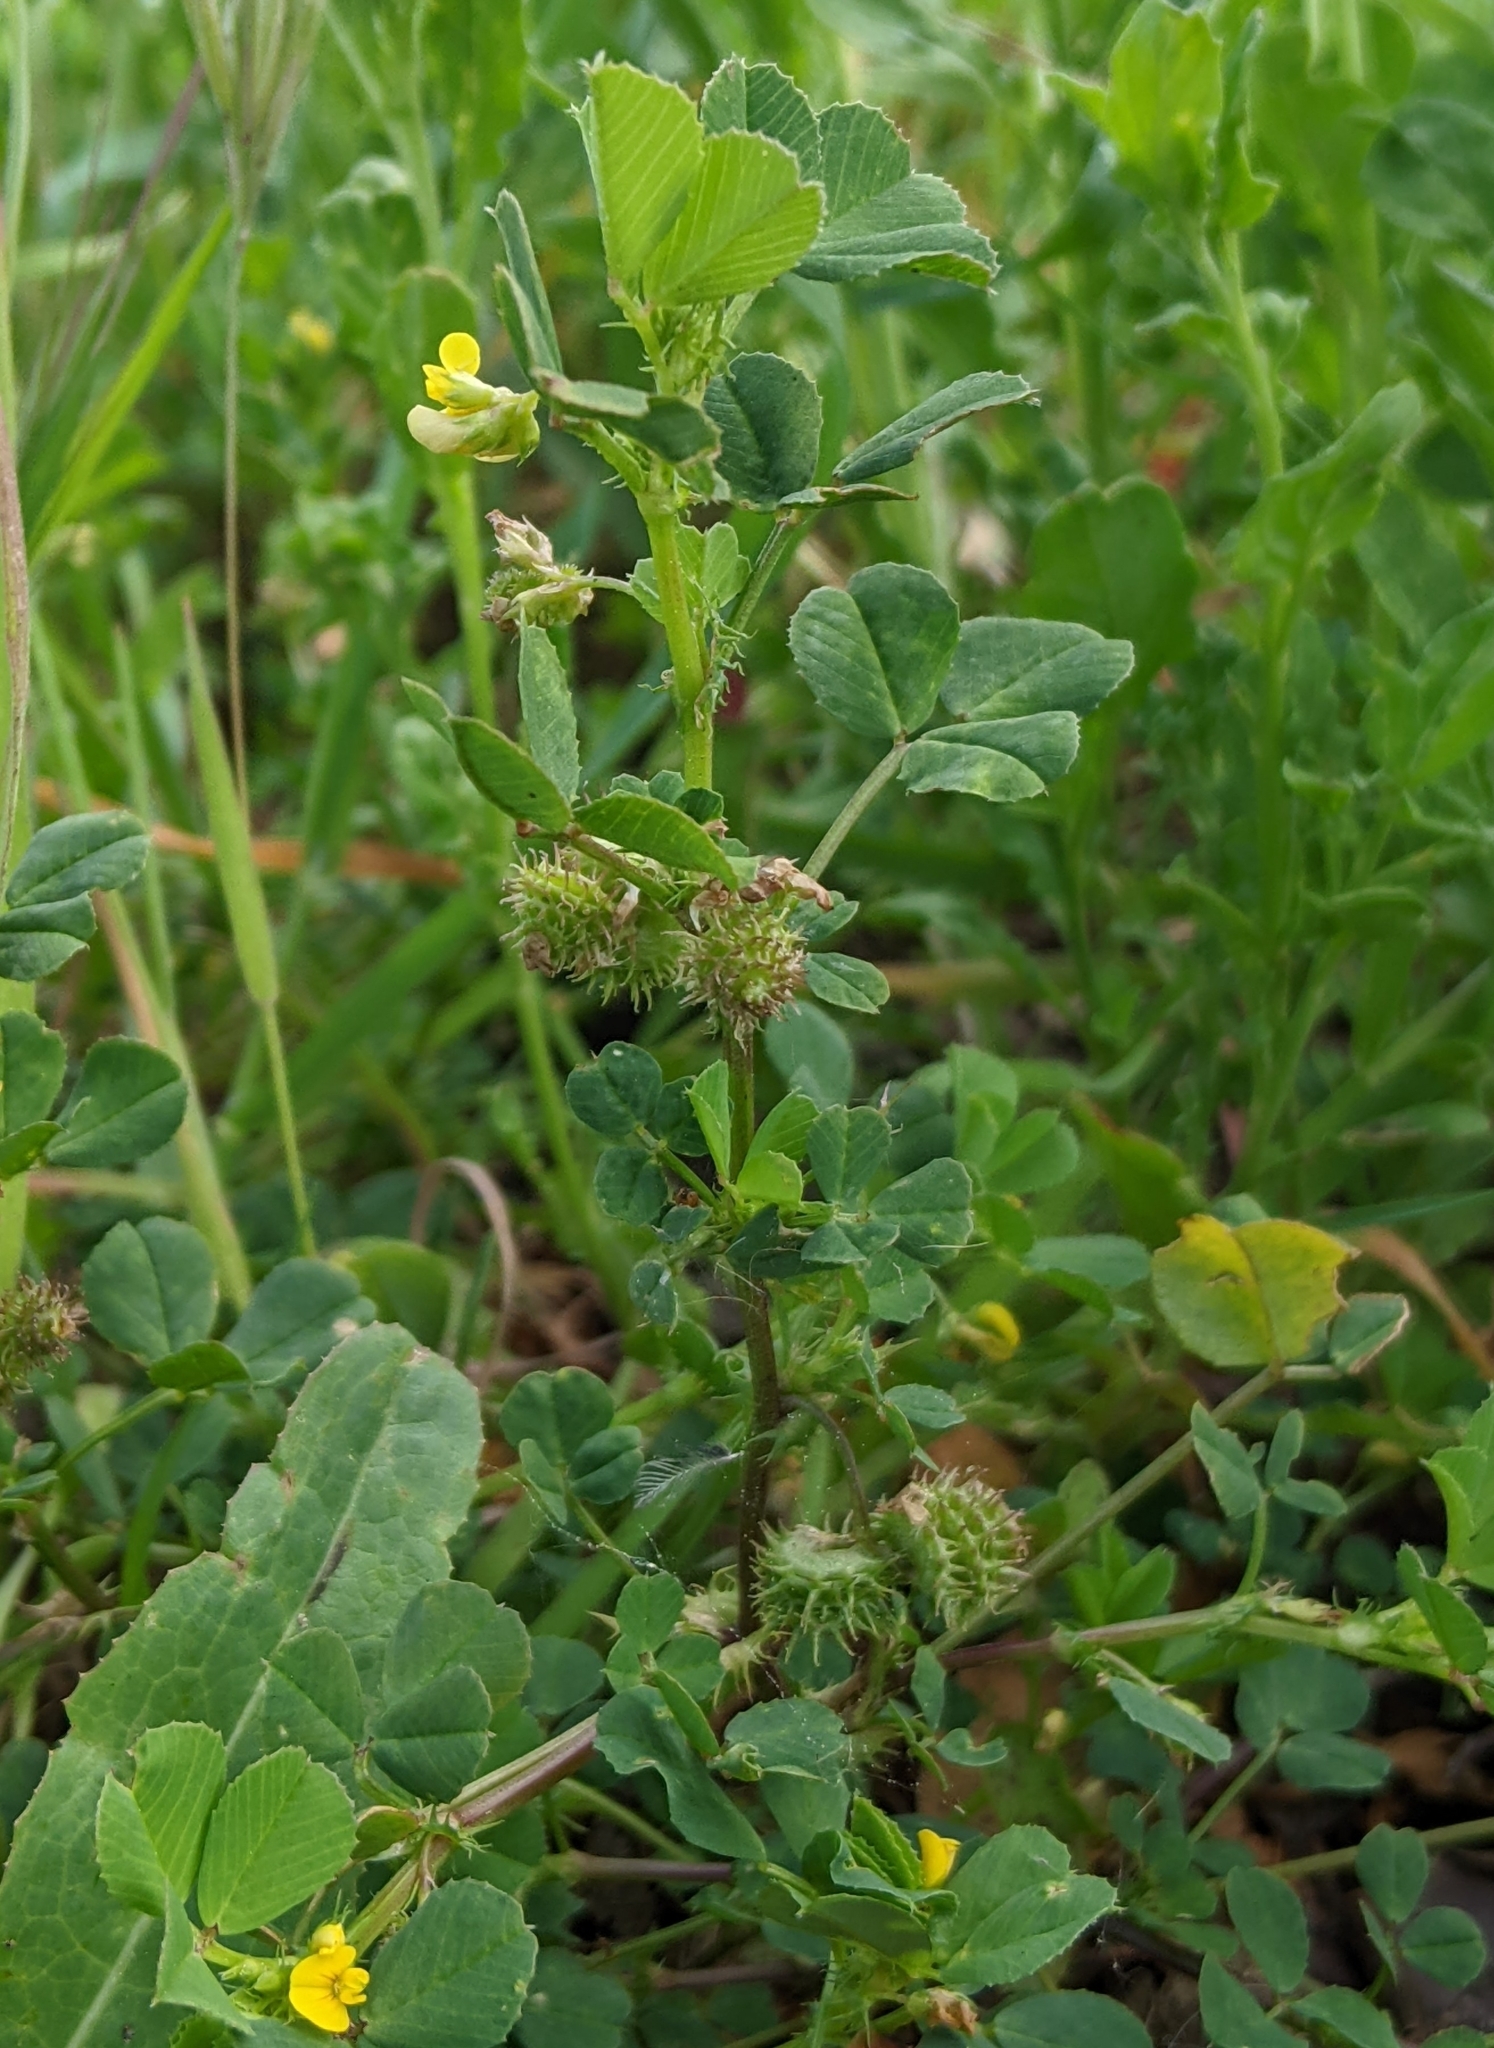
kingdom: Plantae
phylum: Tracheophyta
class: Magnoliopsida
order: Fabales
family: Fabaceae
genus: Medicago
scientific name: Medicago polymorpha
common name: Burclover
